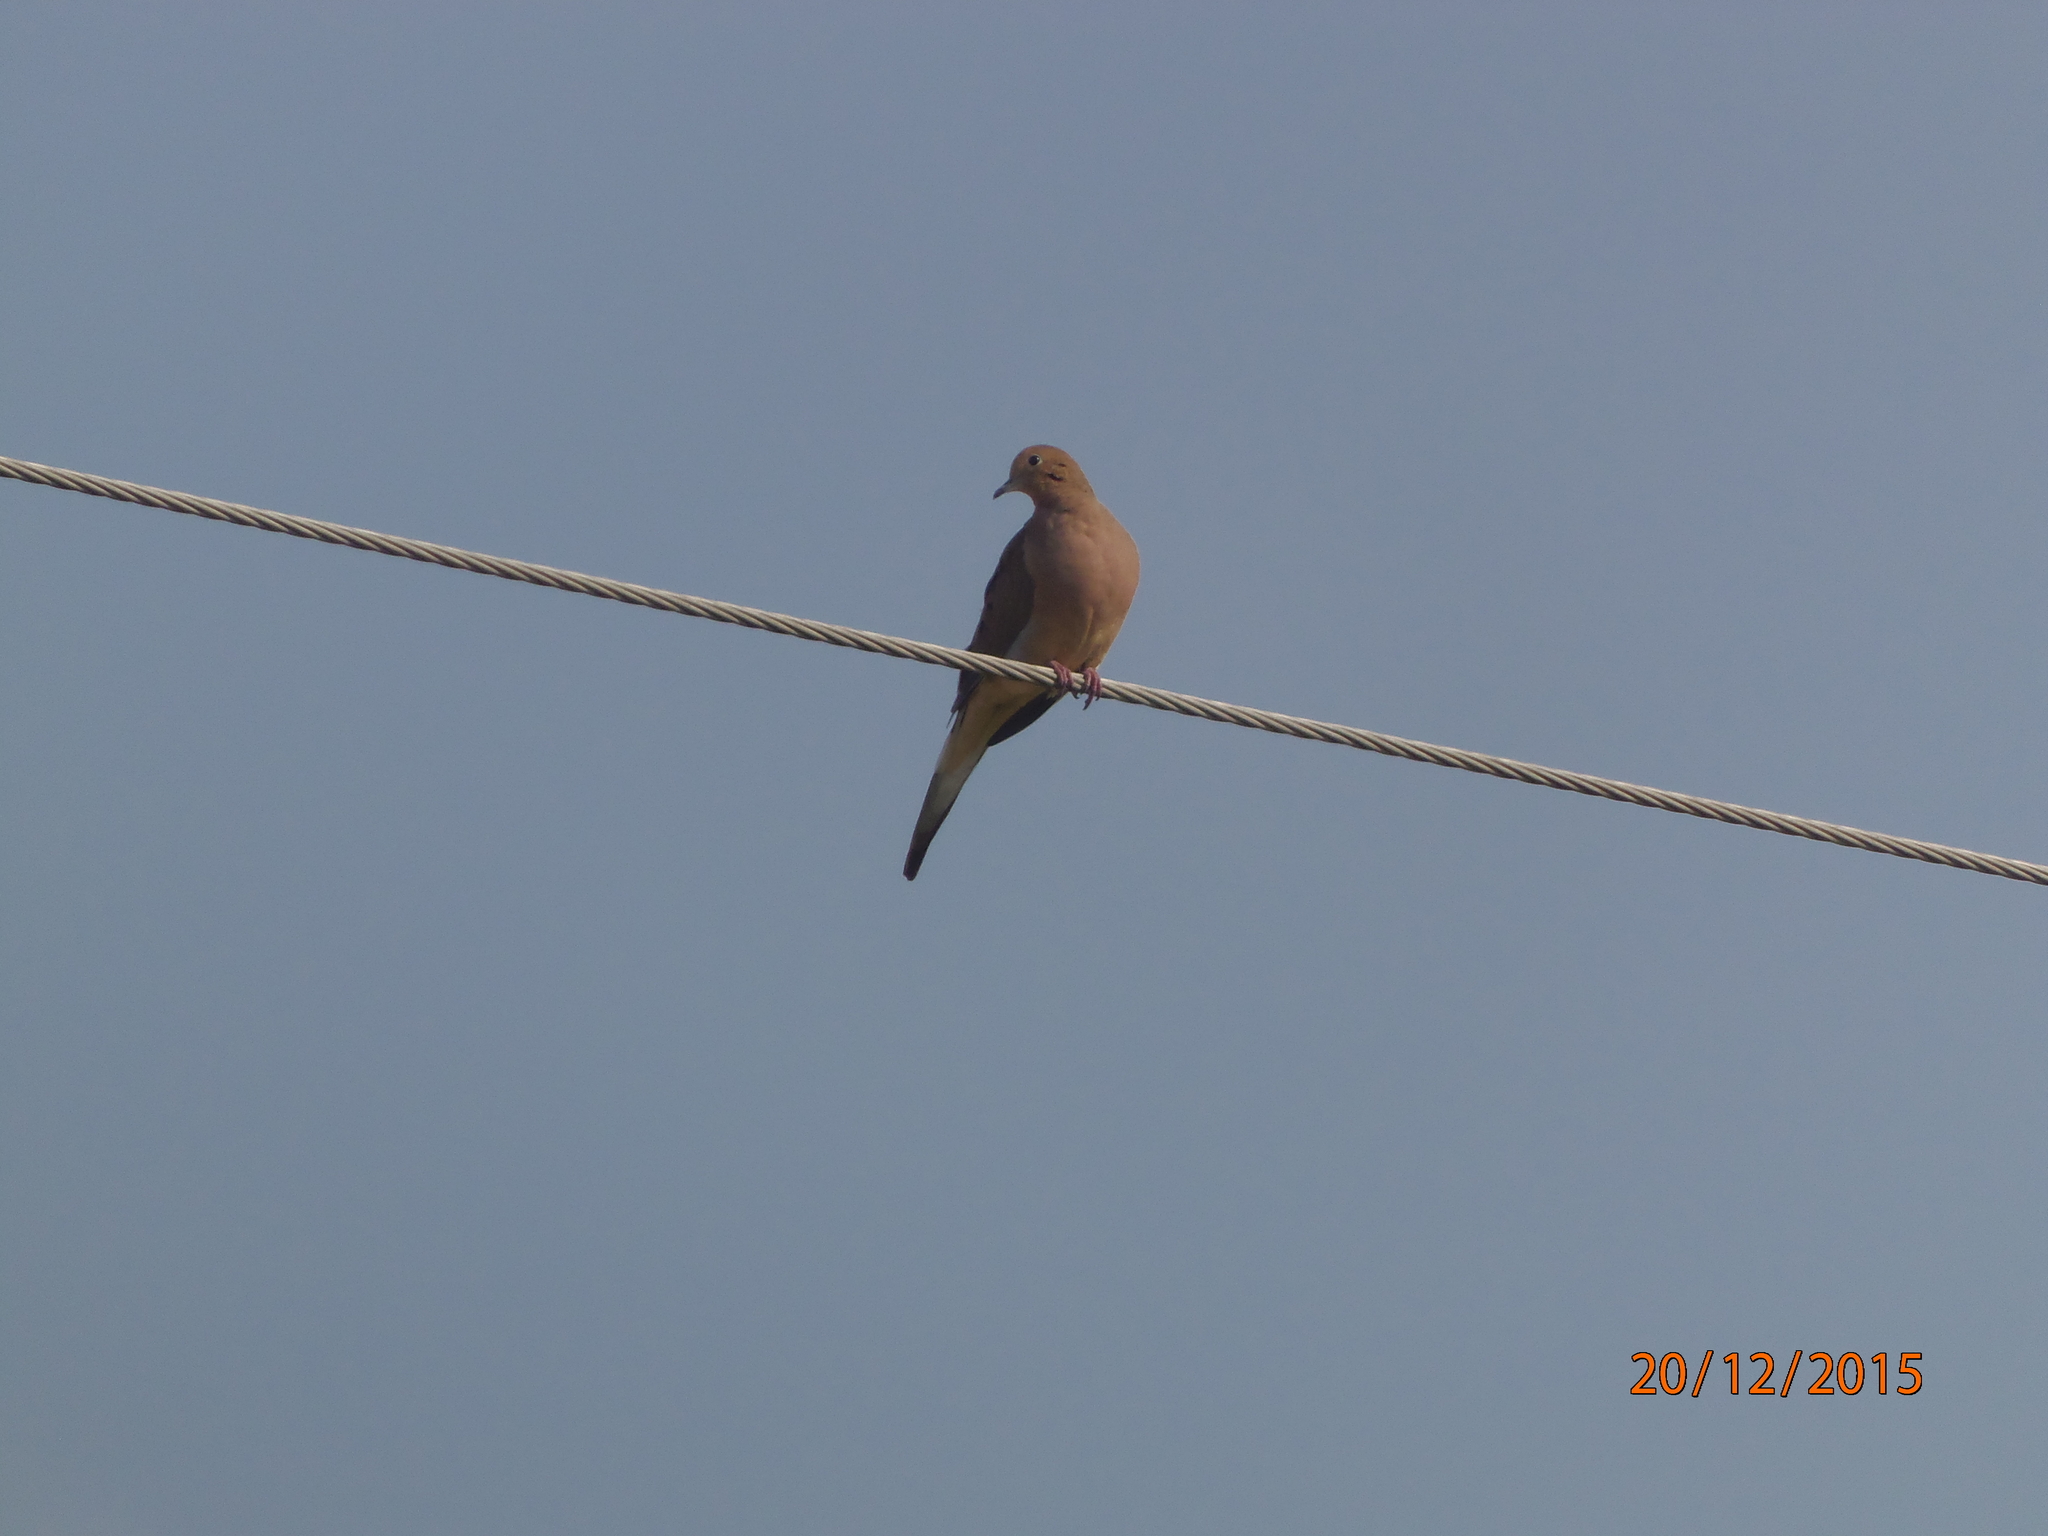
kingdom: Animalia
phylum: Chordata
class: Aves
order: Columbiformes
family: Columbidae
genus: Zenaida
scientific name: Zenaida macroura
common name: Mourning dove
